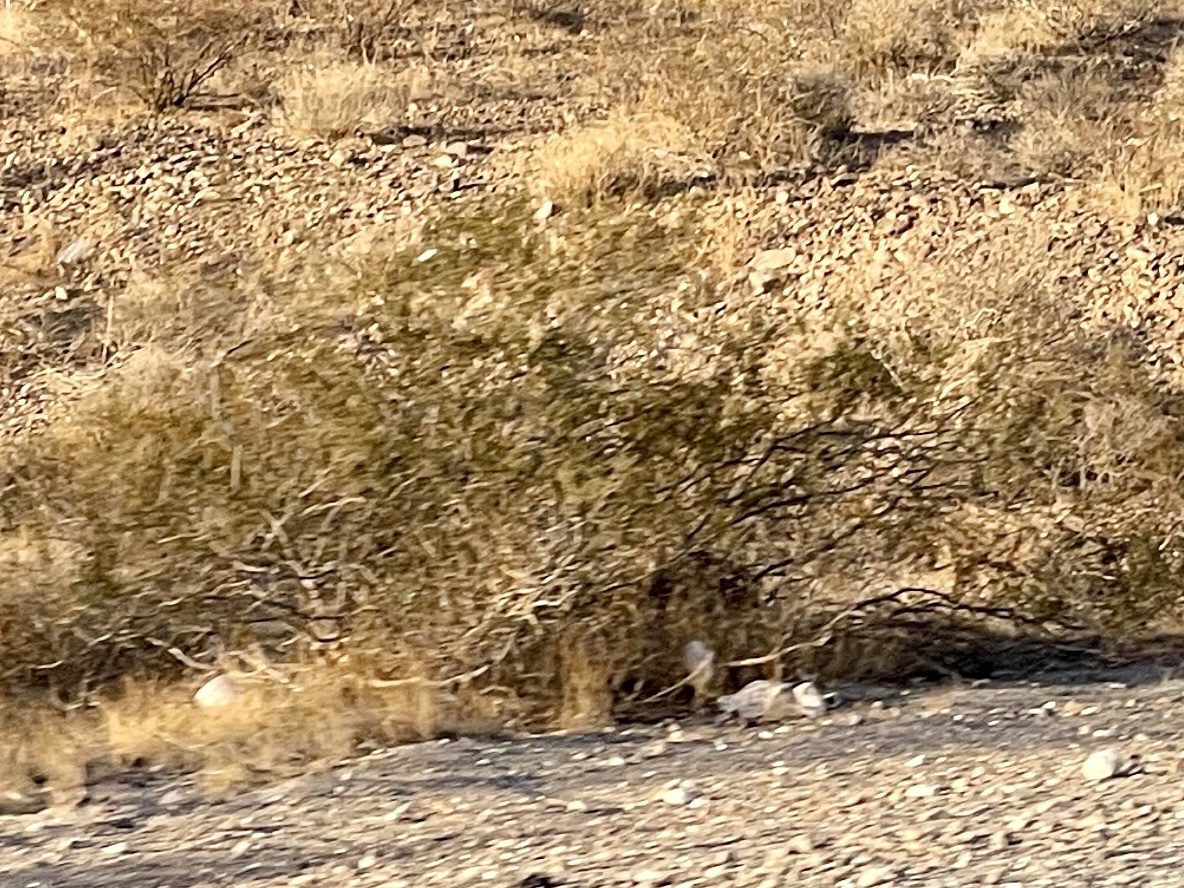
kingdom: Plantae
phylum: Tracheophyta
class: Magnoliopsida
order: Zygophyllales
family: Zygophyllaceae
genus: Larrea
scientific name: Larrea tridentata
